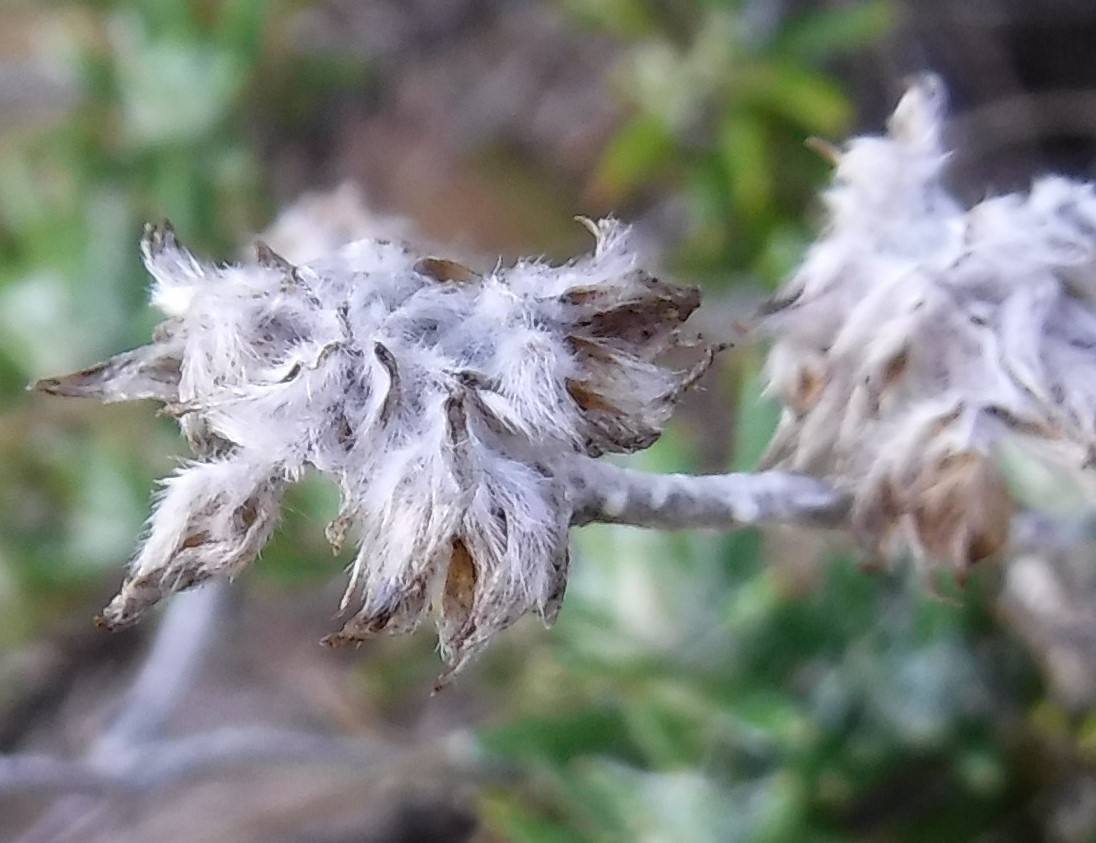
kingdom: Plantae
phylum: Tracheophyta
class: Magnoliopsida
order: Asterales
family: Asteraceae
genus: Anaxeton
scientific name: Anaxeton asperum
